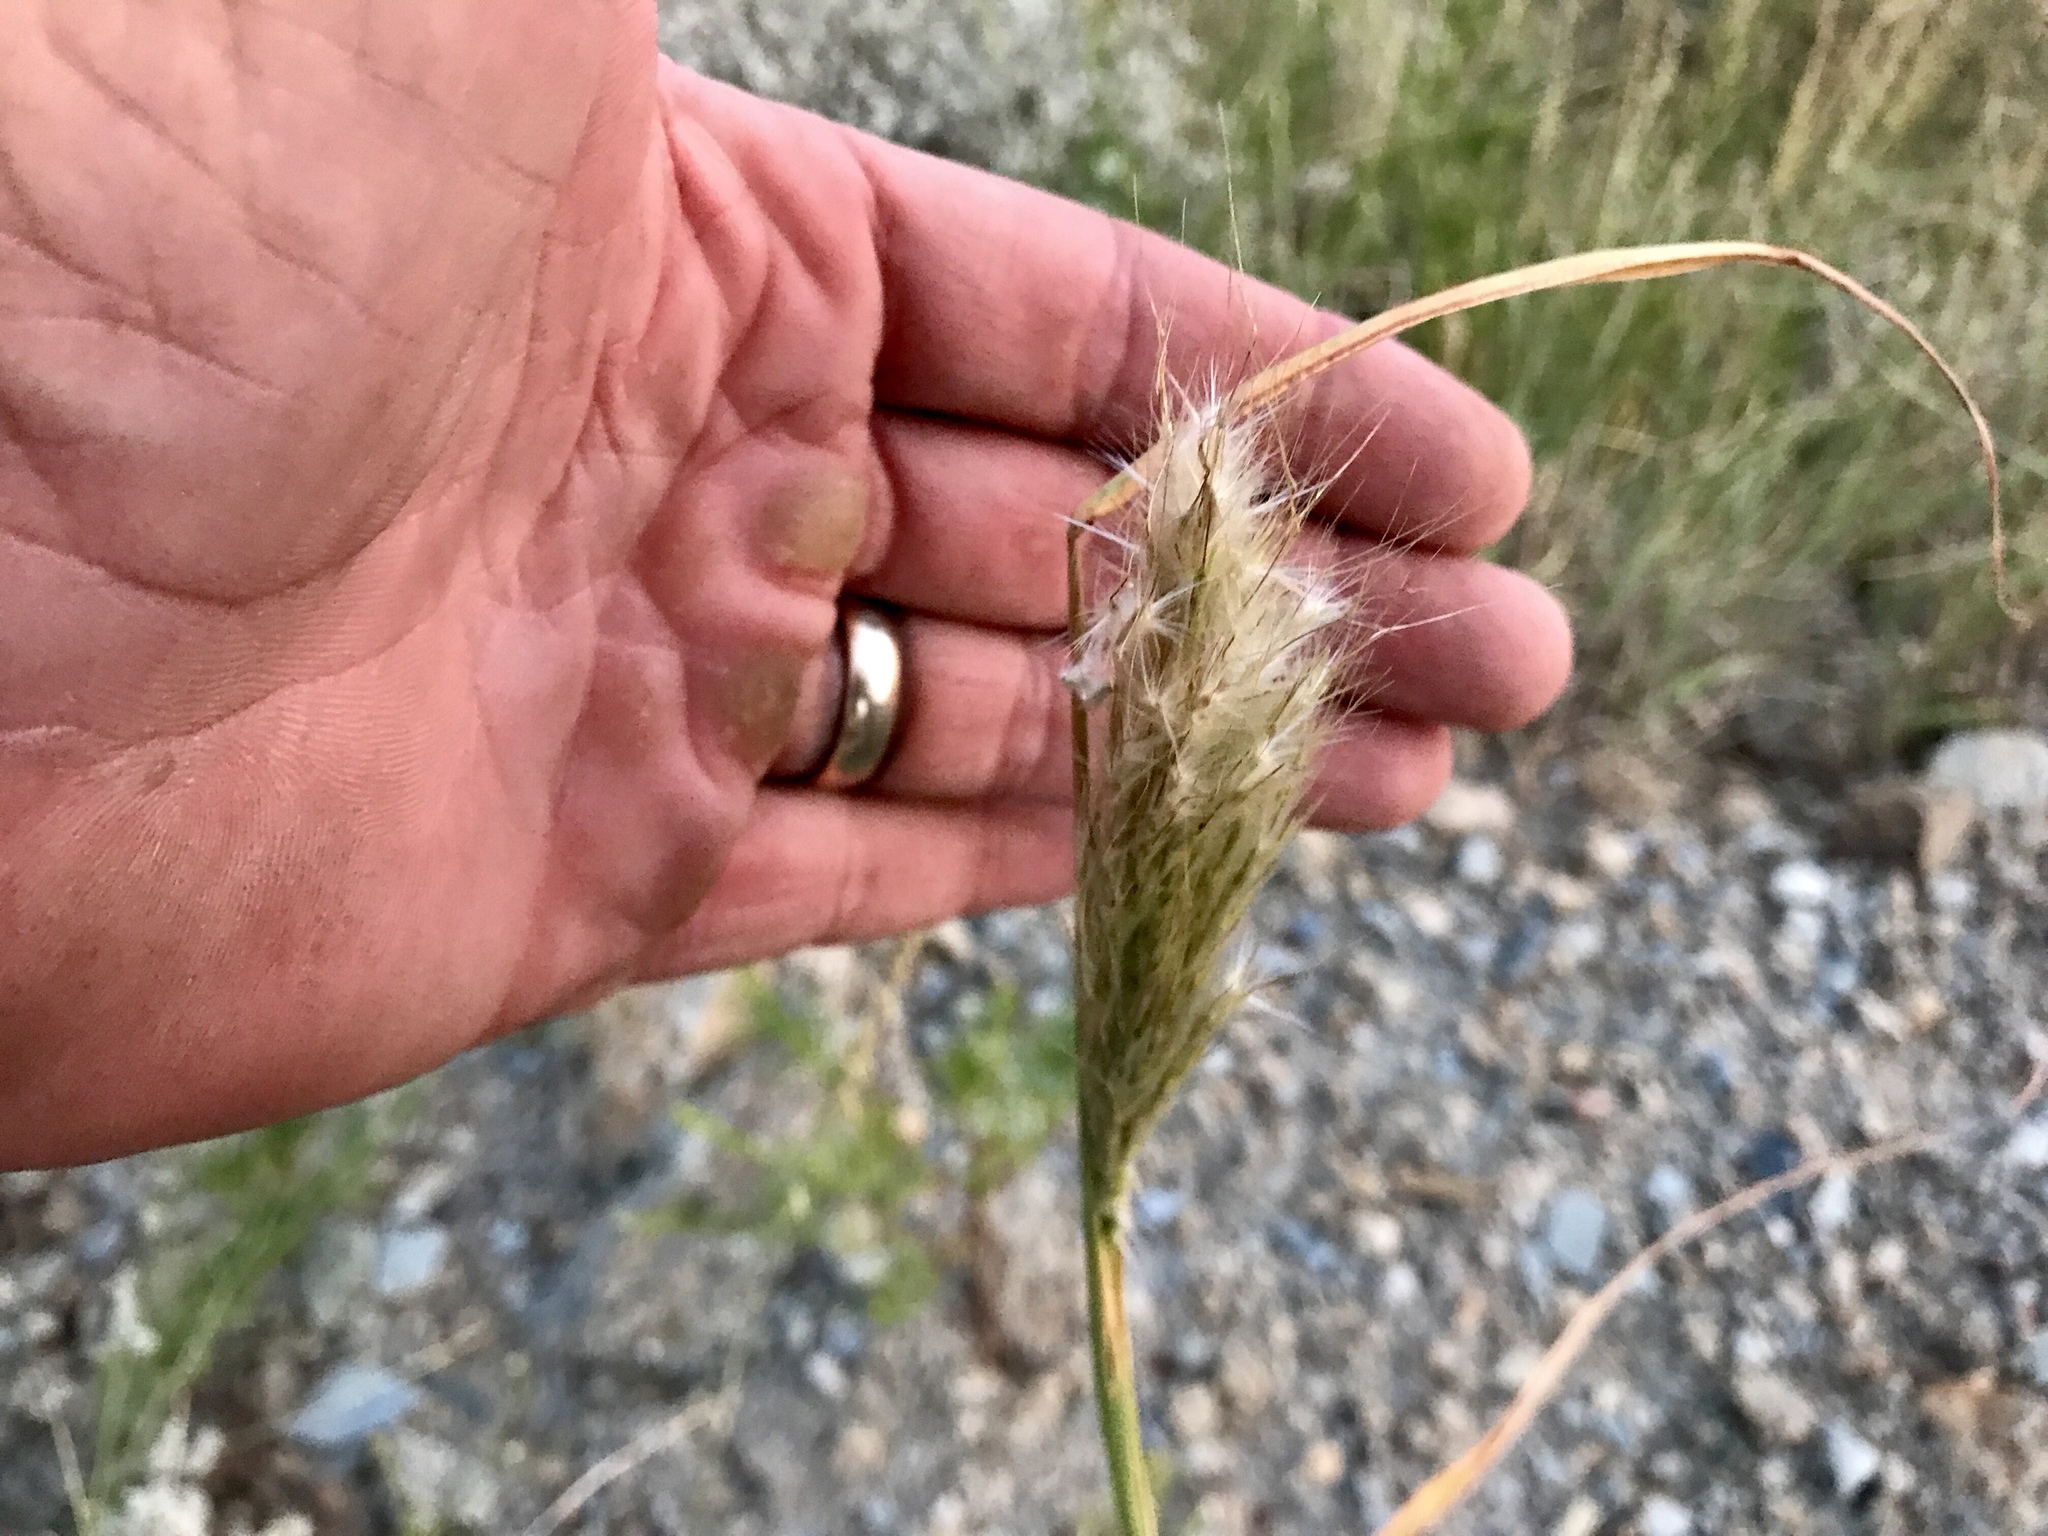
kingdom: Plantae
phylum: Tracheophyta
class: Liliopsida
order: Poales
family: Poaceae
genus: Bothriochloa
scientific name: Bothriochloa barbinodis
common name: Cane bluestem
